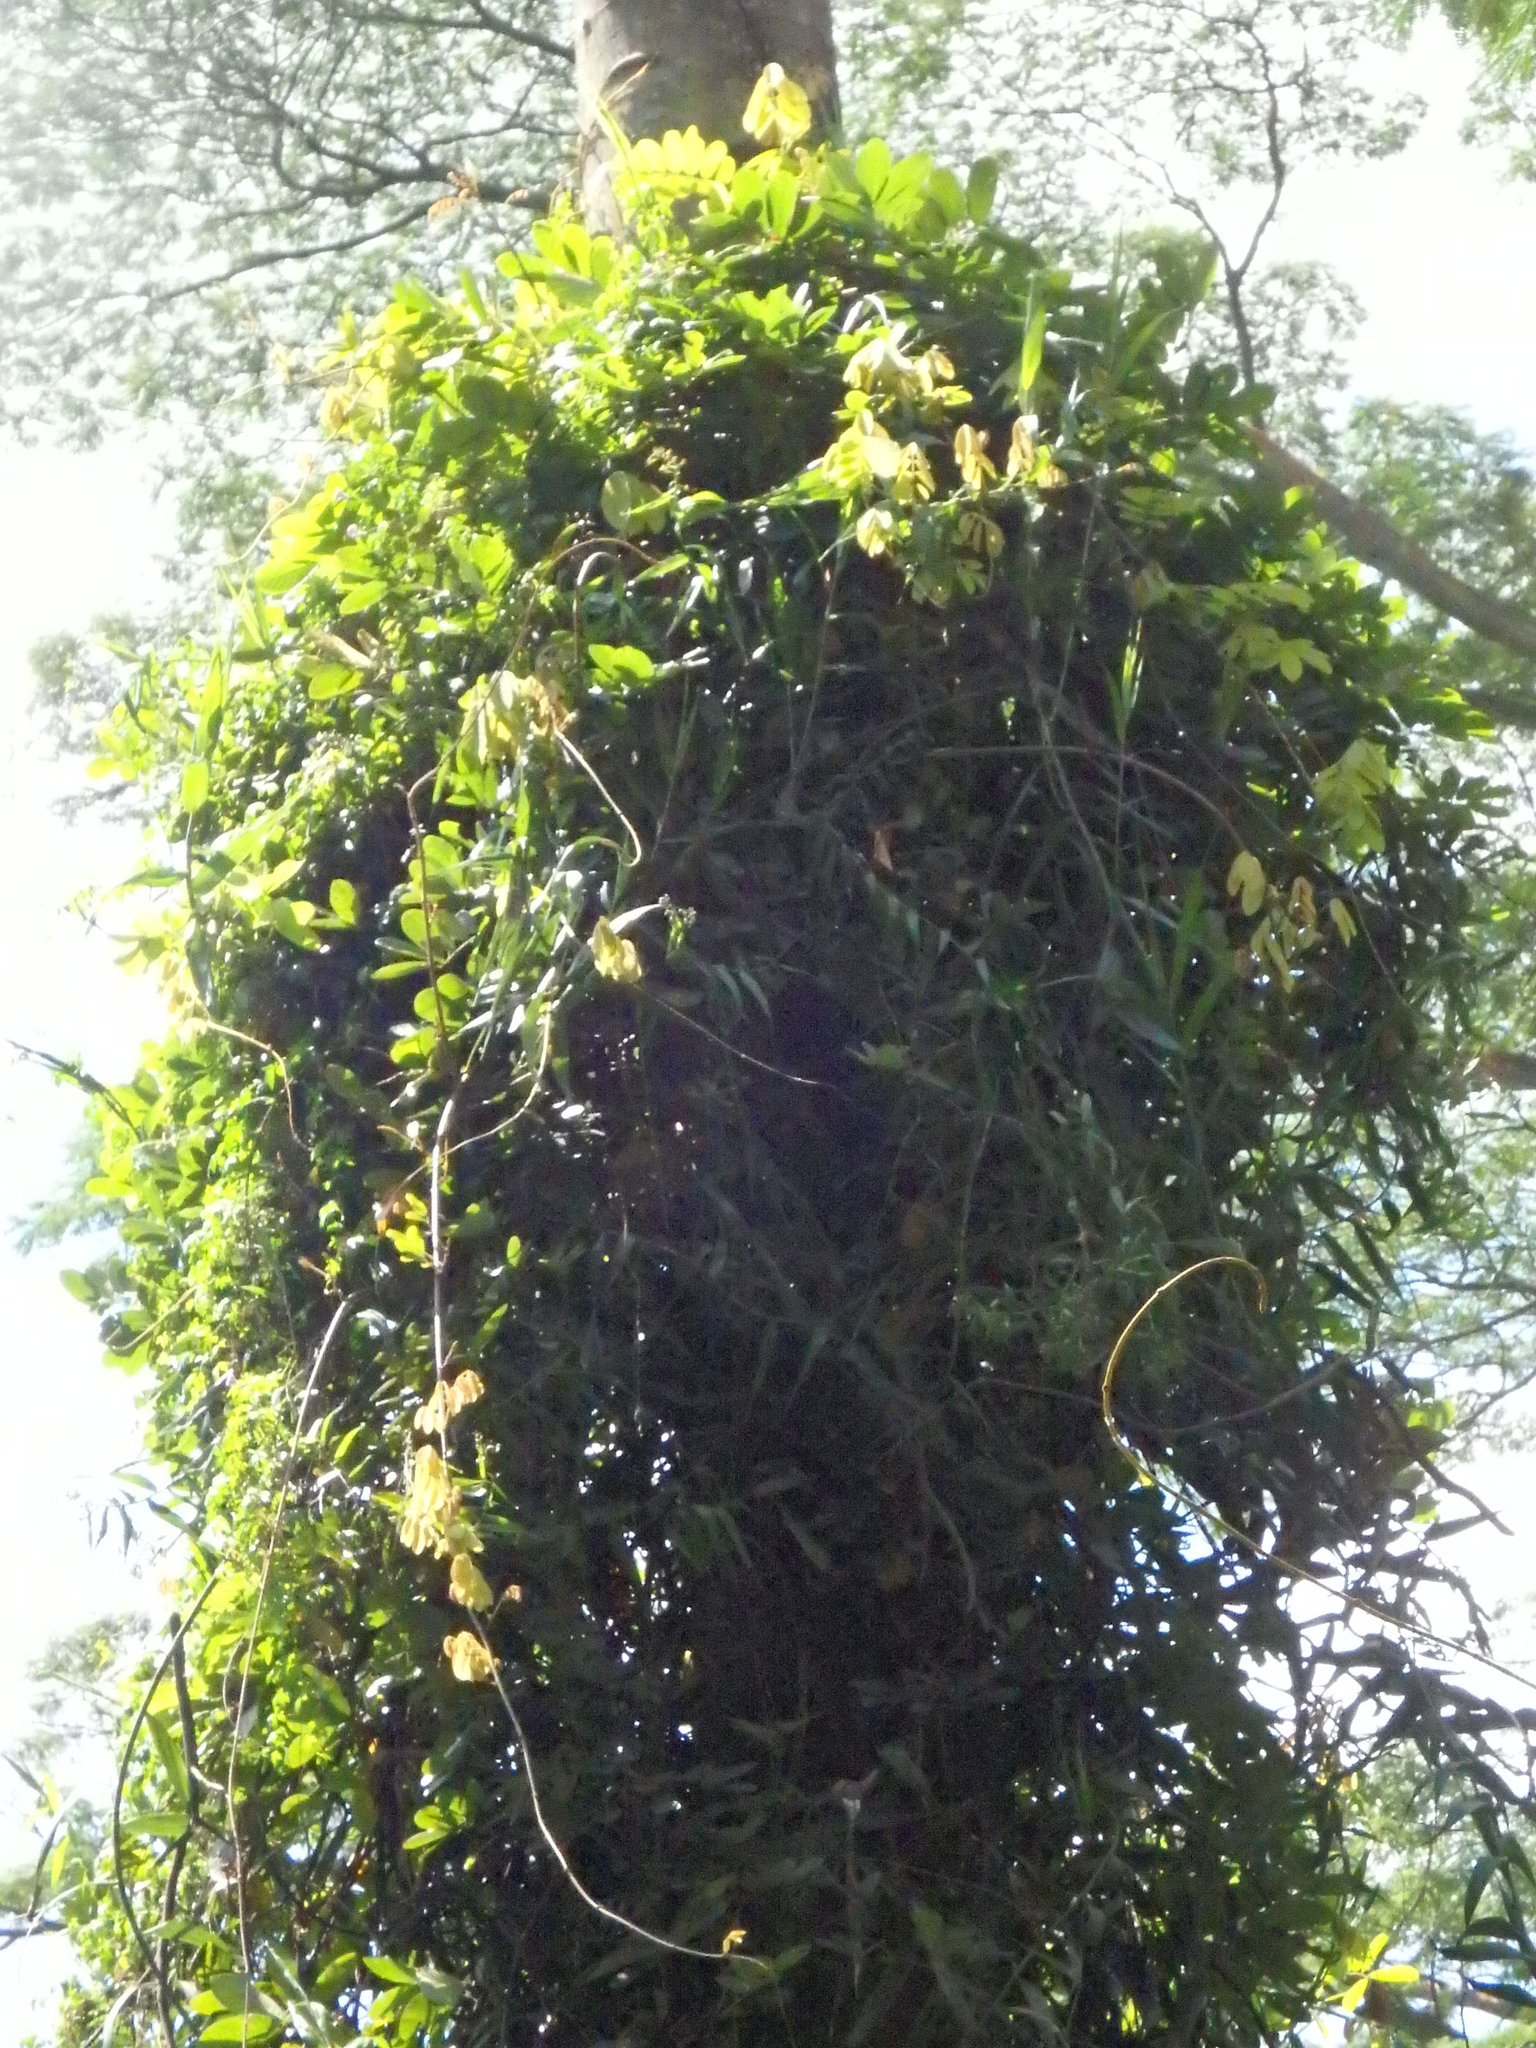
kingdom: Plantae
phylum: Tracheophyta
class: Magnoliopsida
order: Fabales
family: Fabaceae
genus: Derris
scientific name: Derris elliptica
